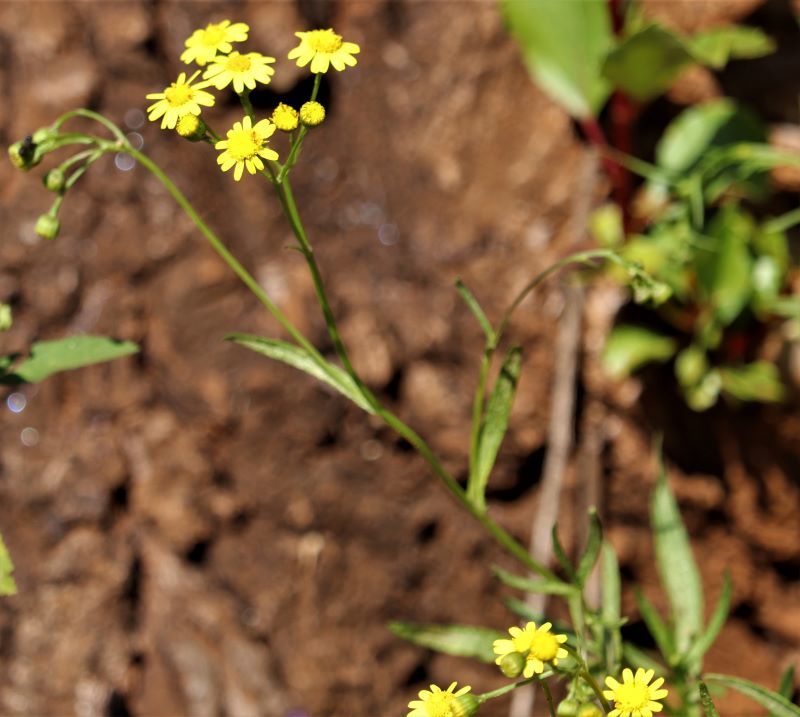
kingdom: Plantae
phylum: Tracheophyta
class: Magnoliopsida
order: Asterales
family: Asteraceae
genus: Senecio
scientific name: Senecio inaequidens
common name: Narrow-leaved ragwort
